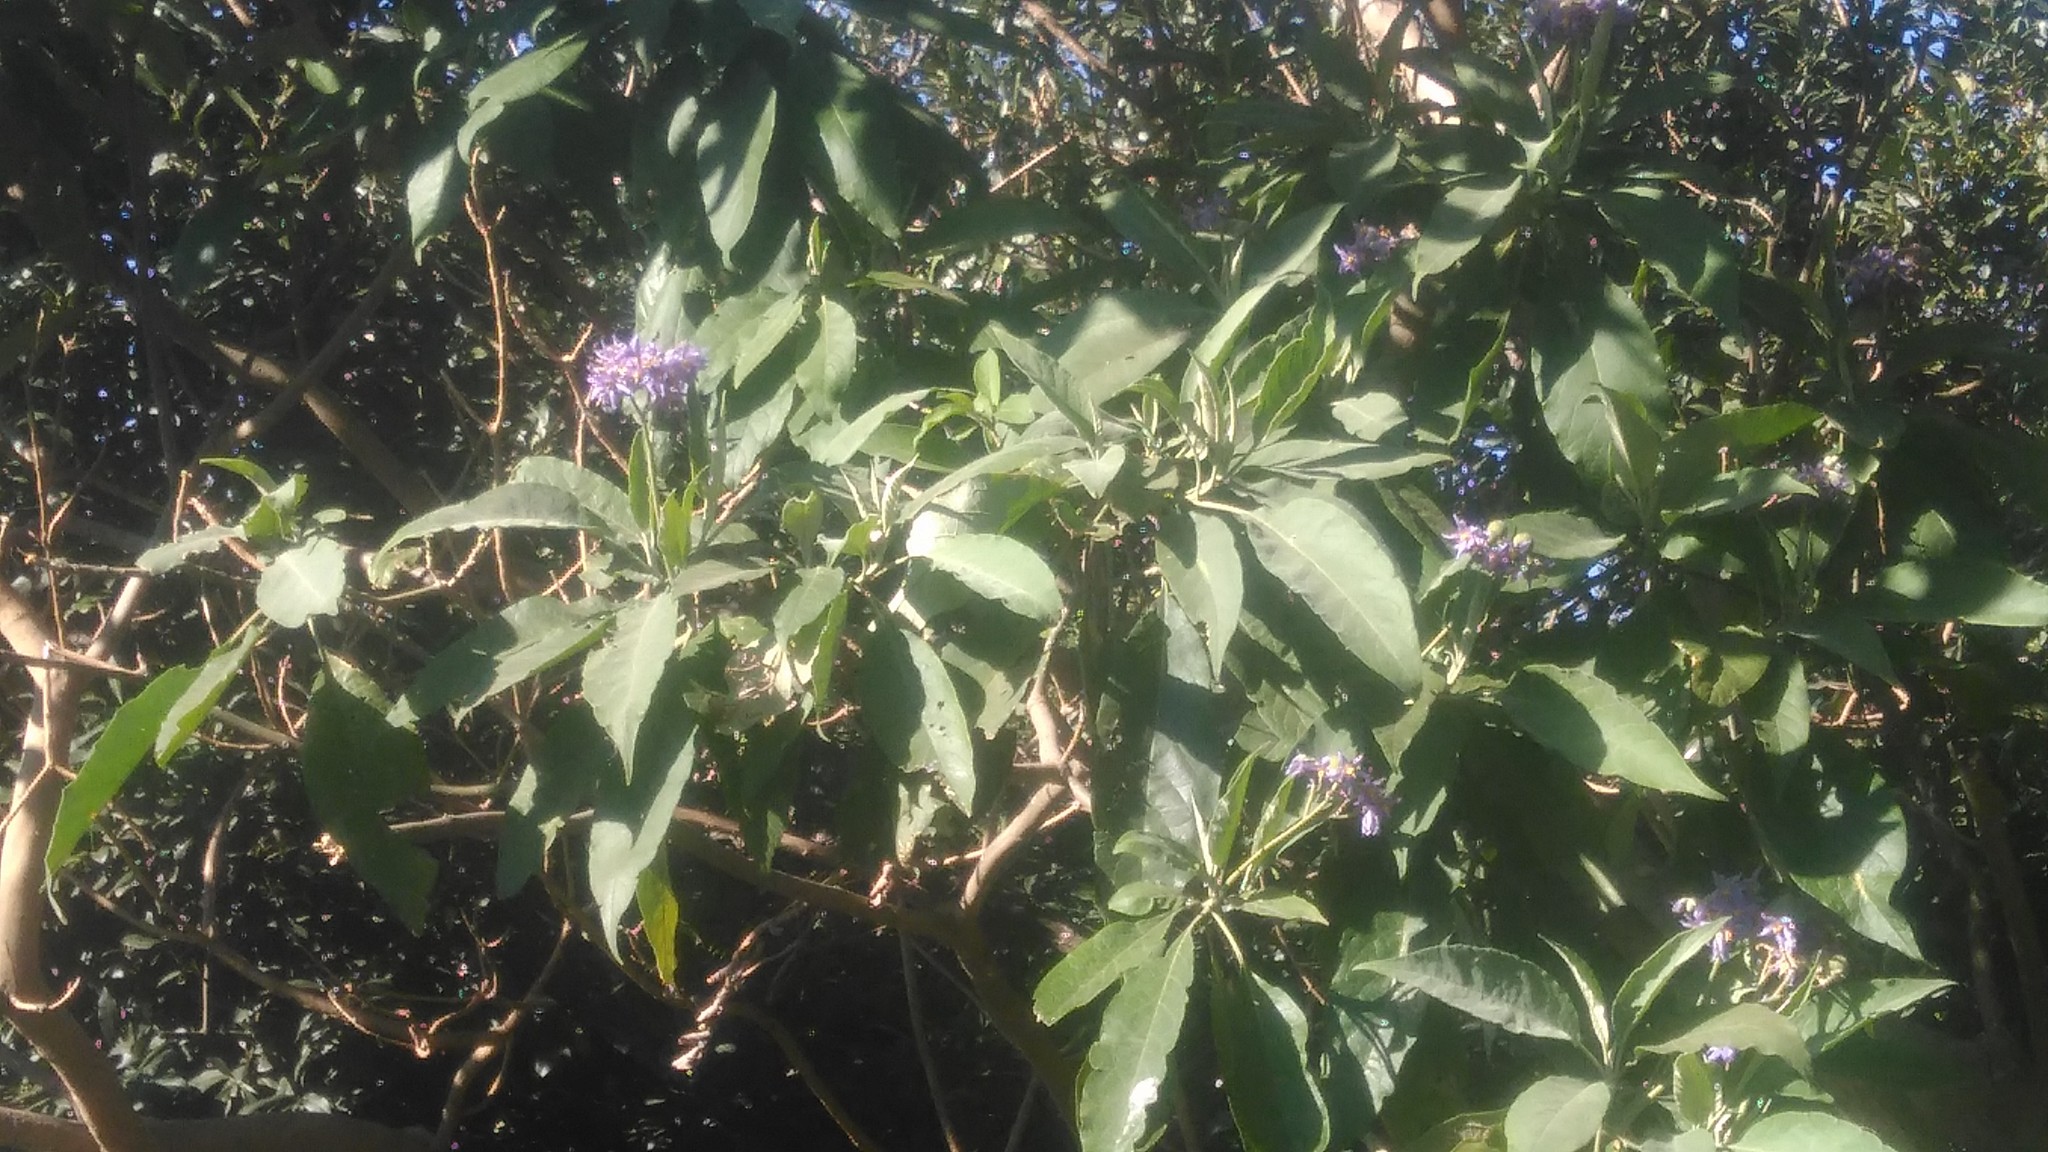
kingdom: Plantae
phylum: Tracheophyta
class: Magnoliopsida
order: Solanales
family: Solanaceae
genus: Solanum
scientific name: Solanum granulosoleprosum
